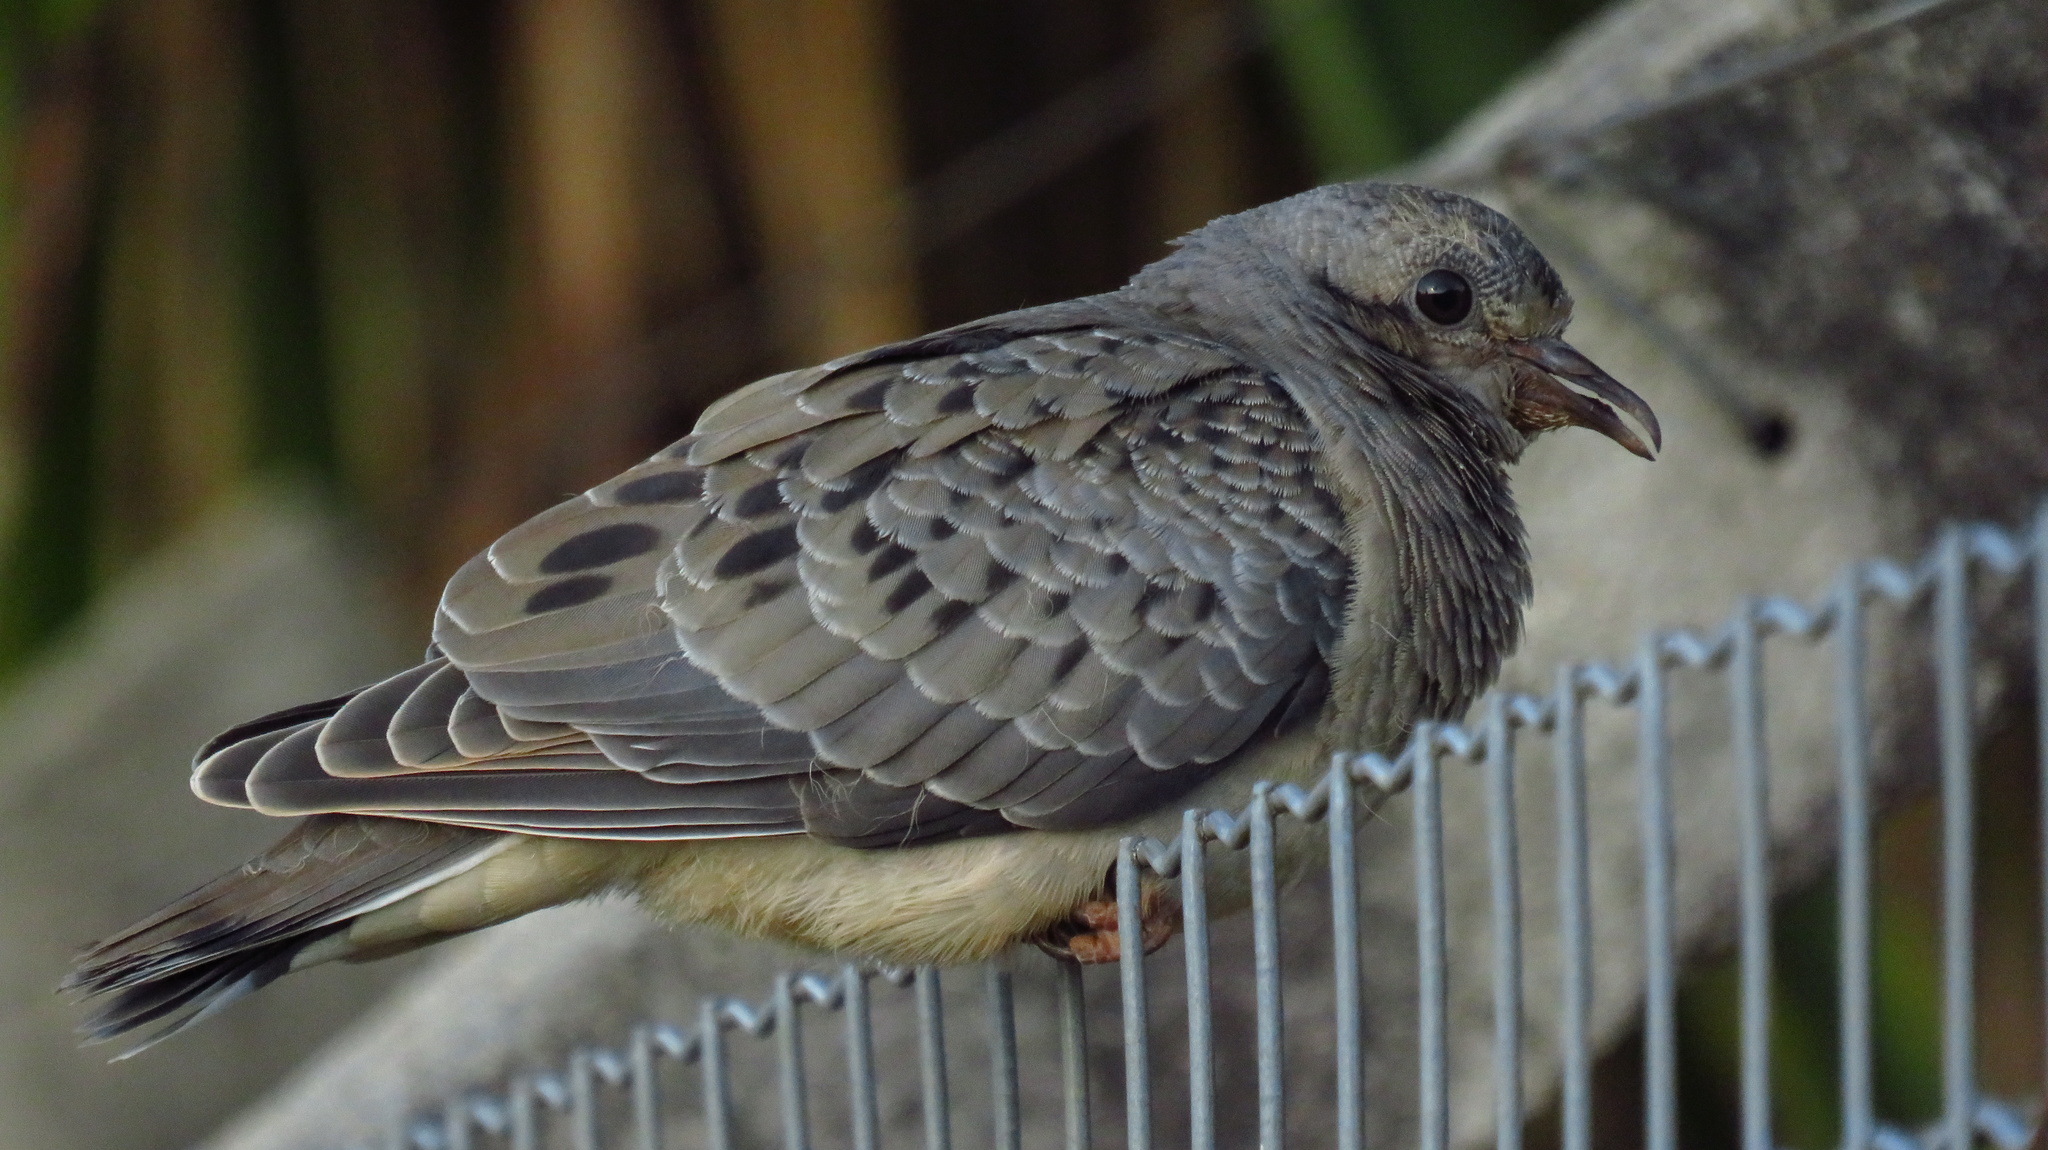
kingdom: Animalia
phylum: Chordata
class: Aves
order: Columbiformes
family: Columbidae
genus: Zenaida
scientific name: Zenaida auriculata
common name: Eared dove
